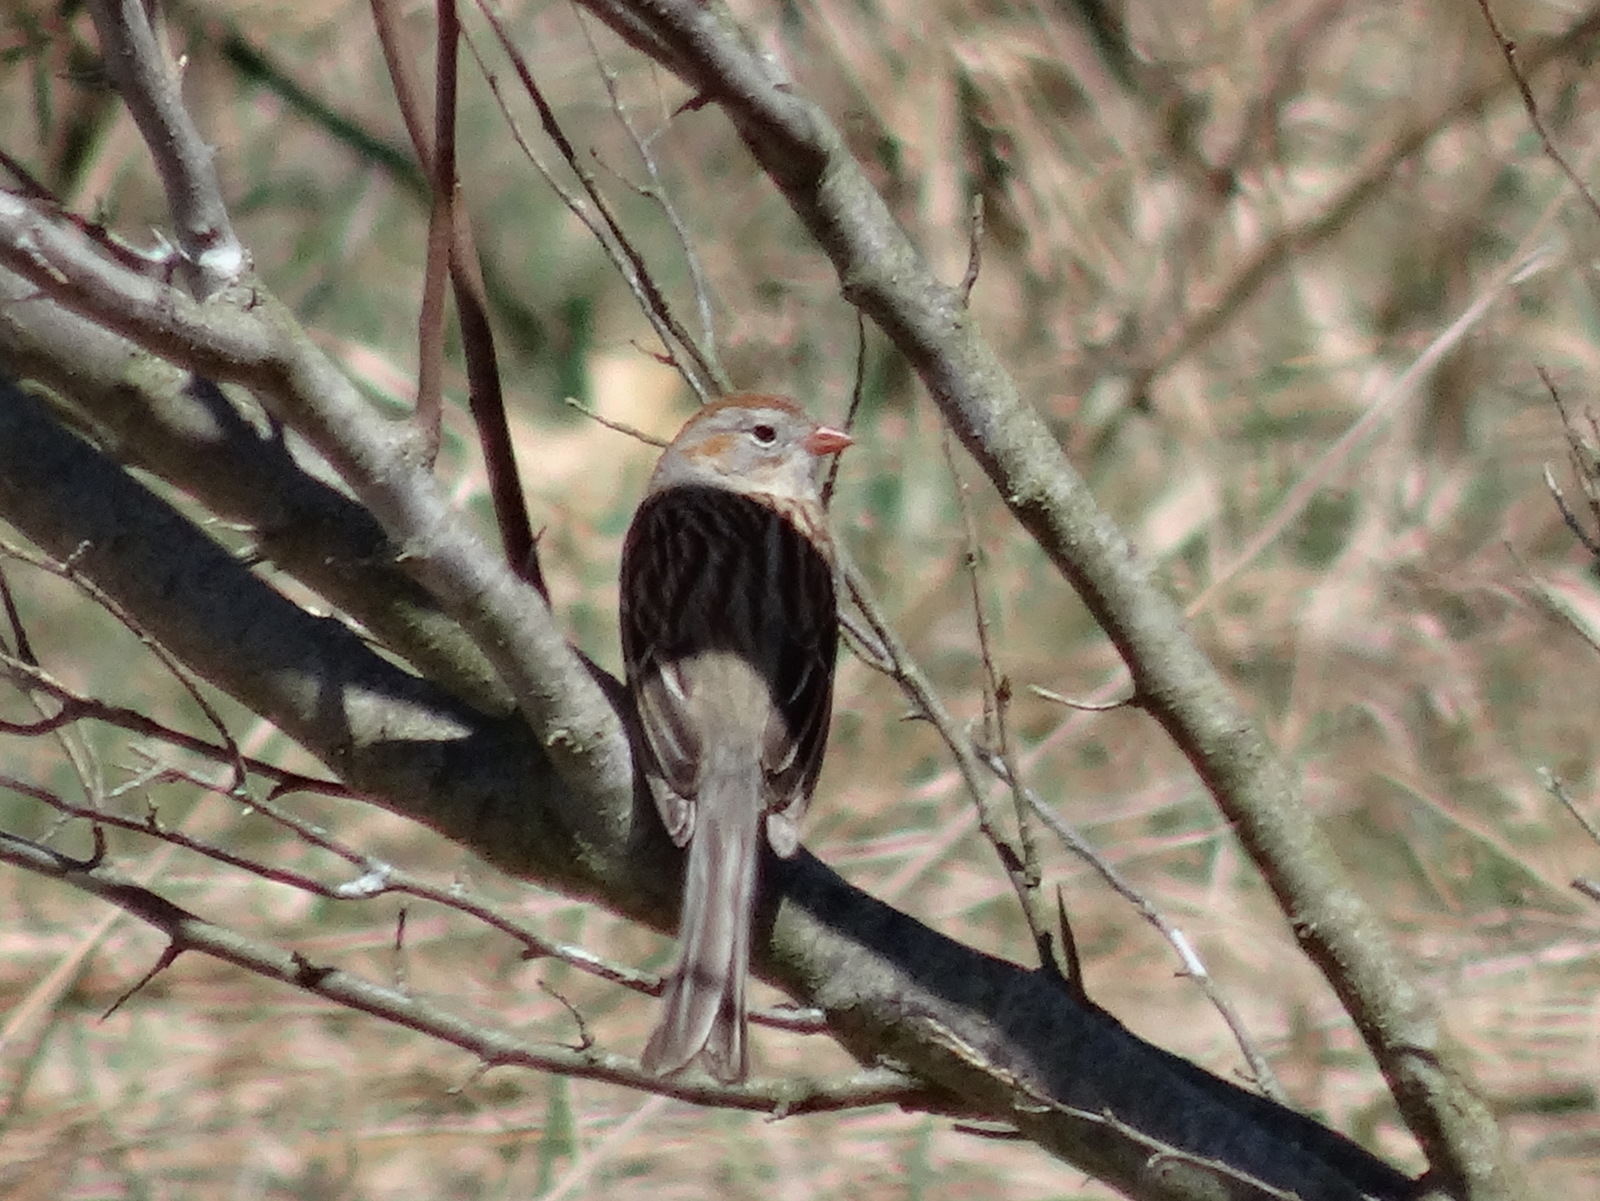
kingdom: Animalia
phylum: Chordata
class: Aves
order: Passeriformes
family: Passerellidae
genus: Spizella
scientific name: Spizella pusilla
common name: Field sparrow
